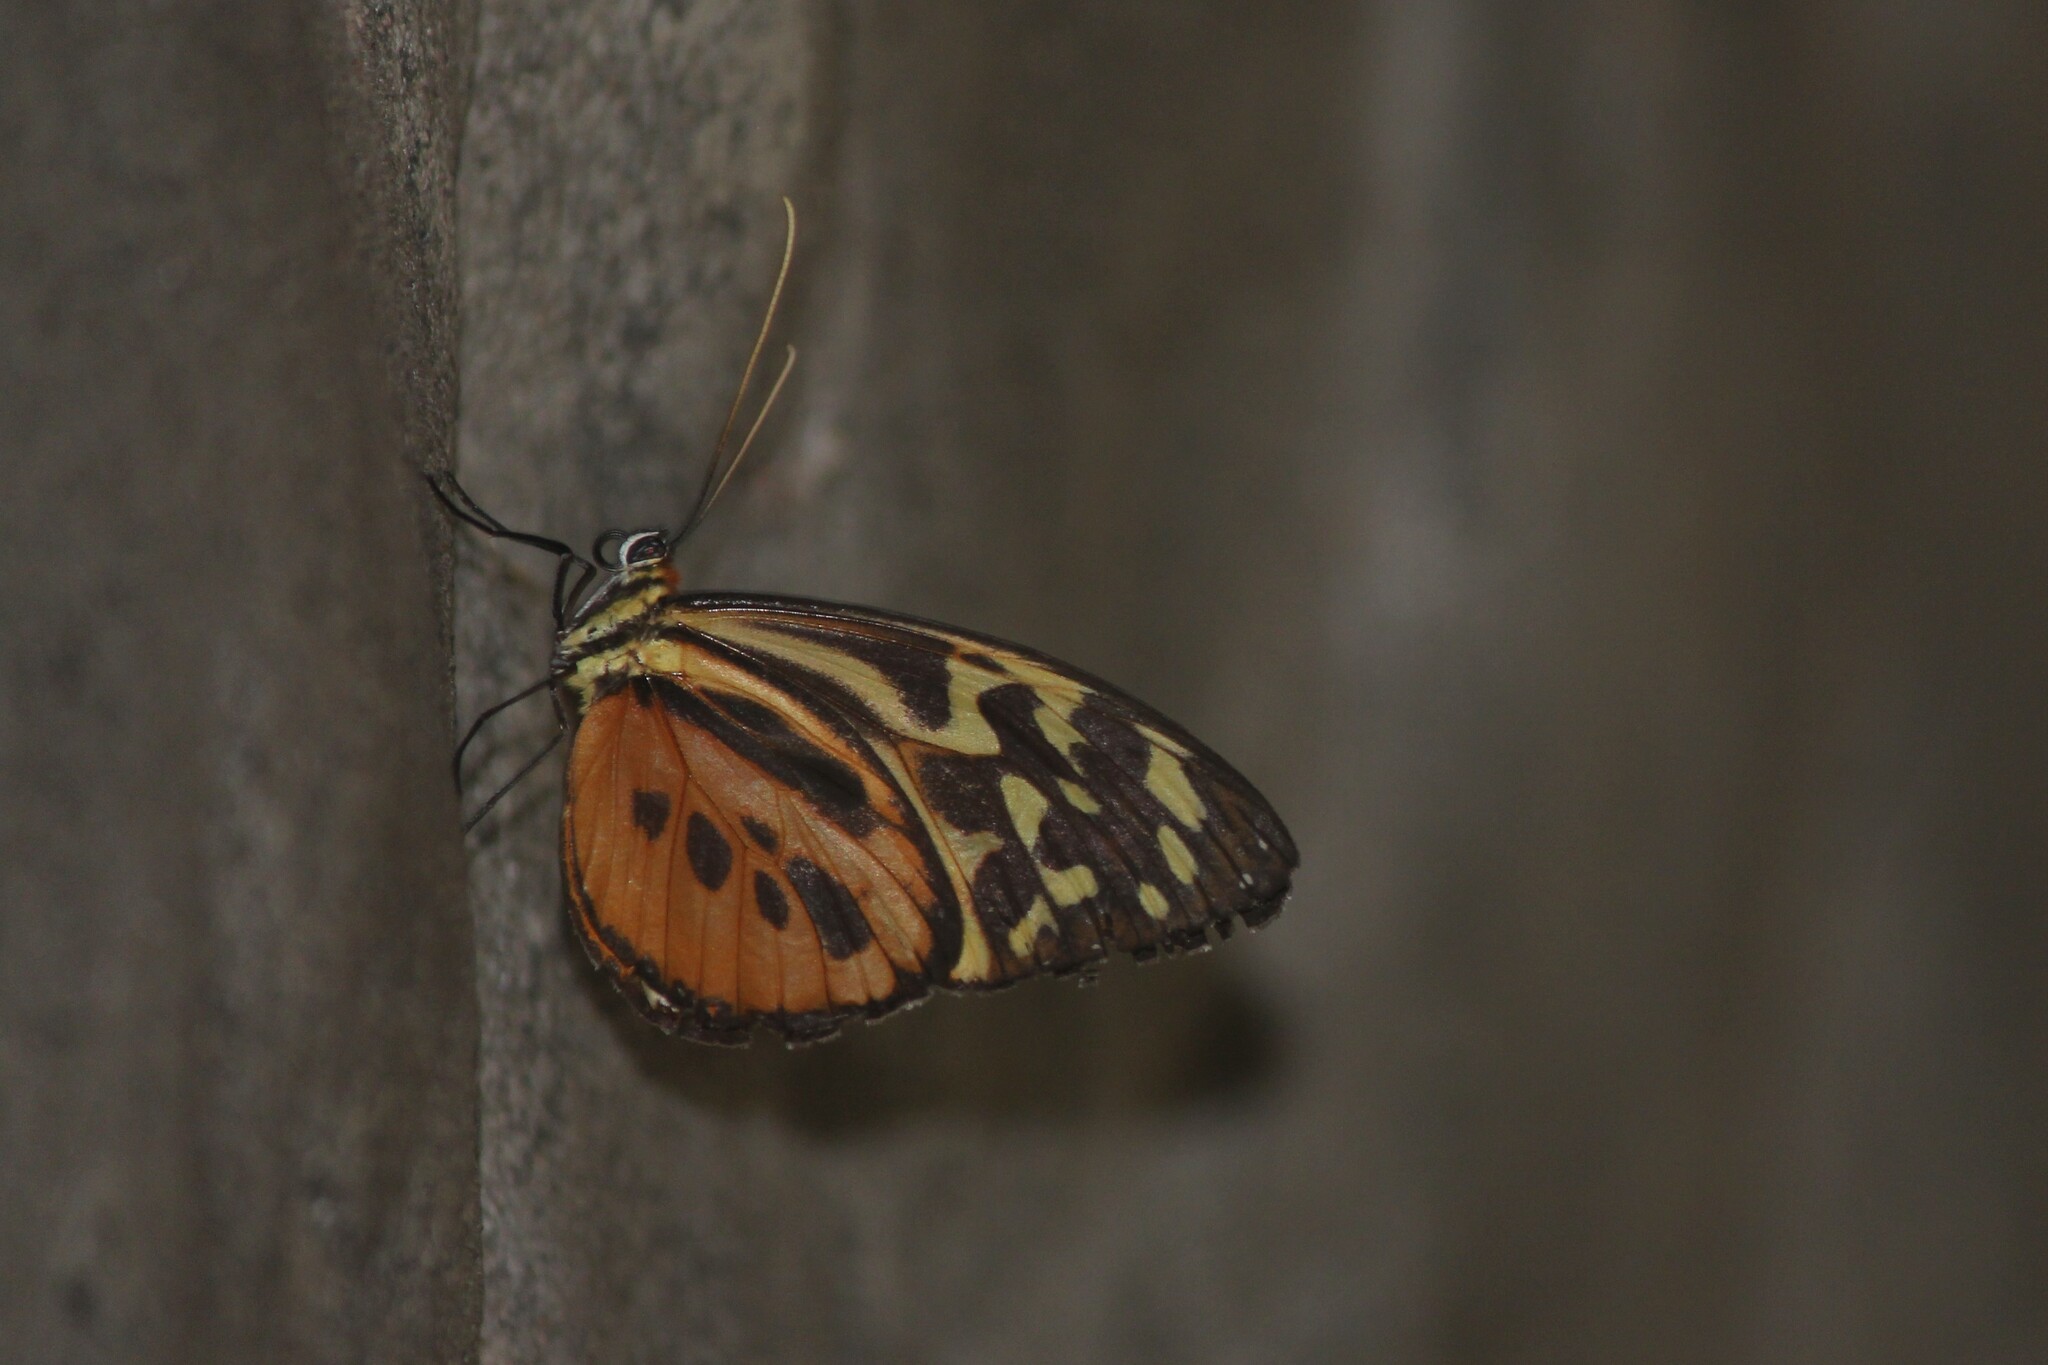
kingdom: Animalia
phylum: Arthropoda
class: Insecta
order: Lepidoptera
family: Nymphalidae
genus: Tithorea
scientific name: Tithorea harmonia
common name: Harmonia tigerwing
